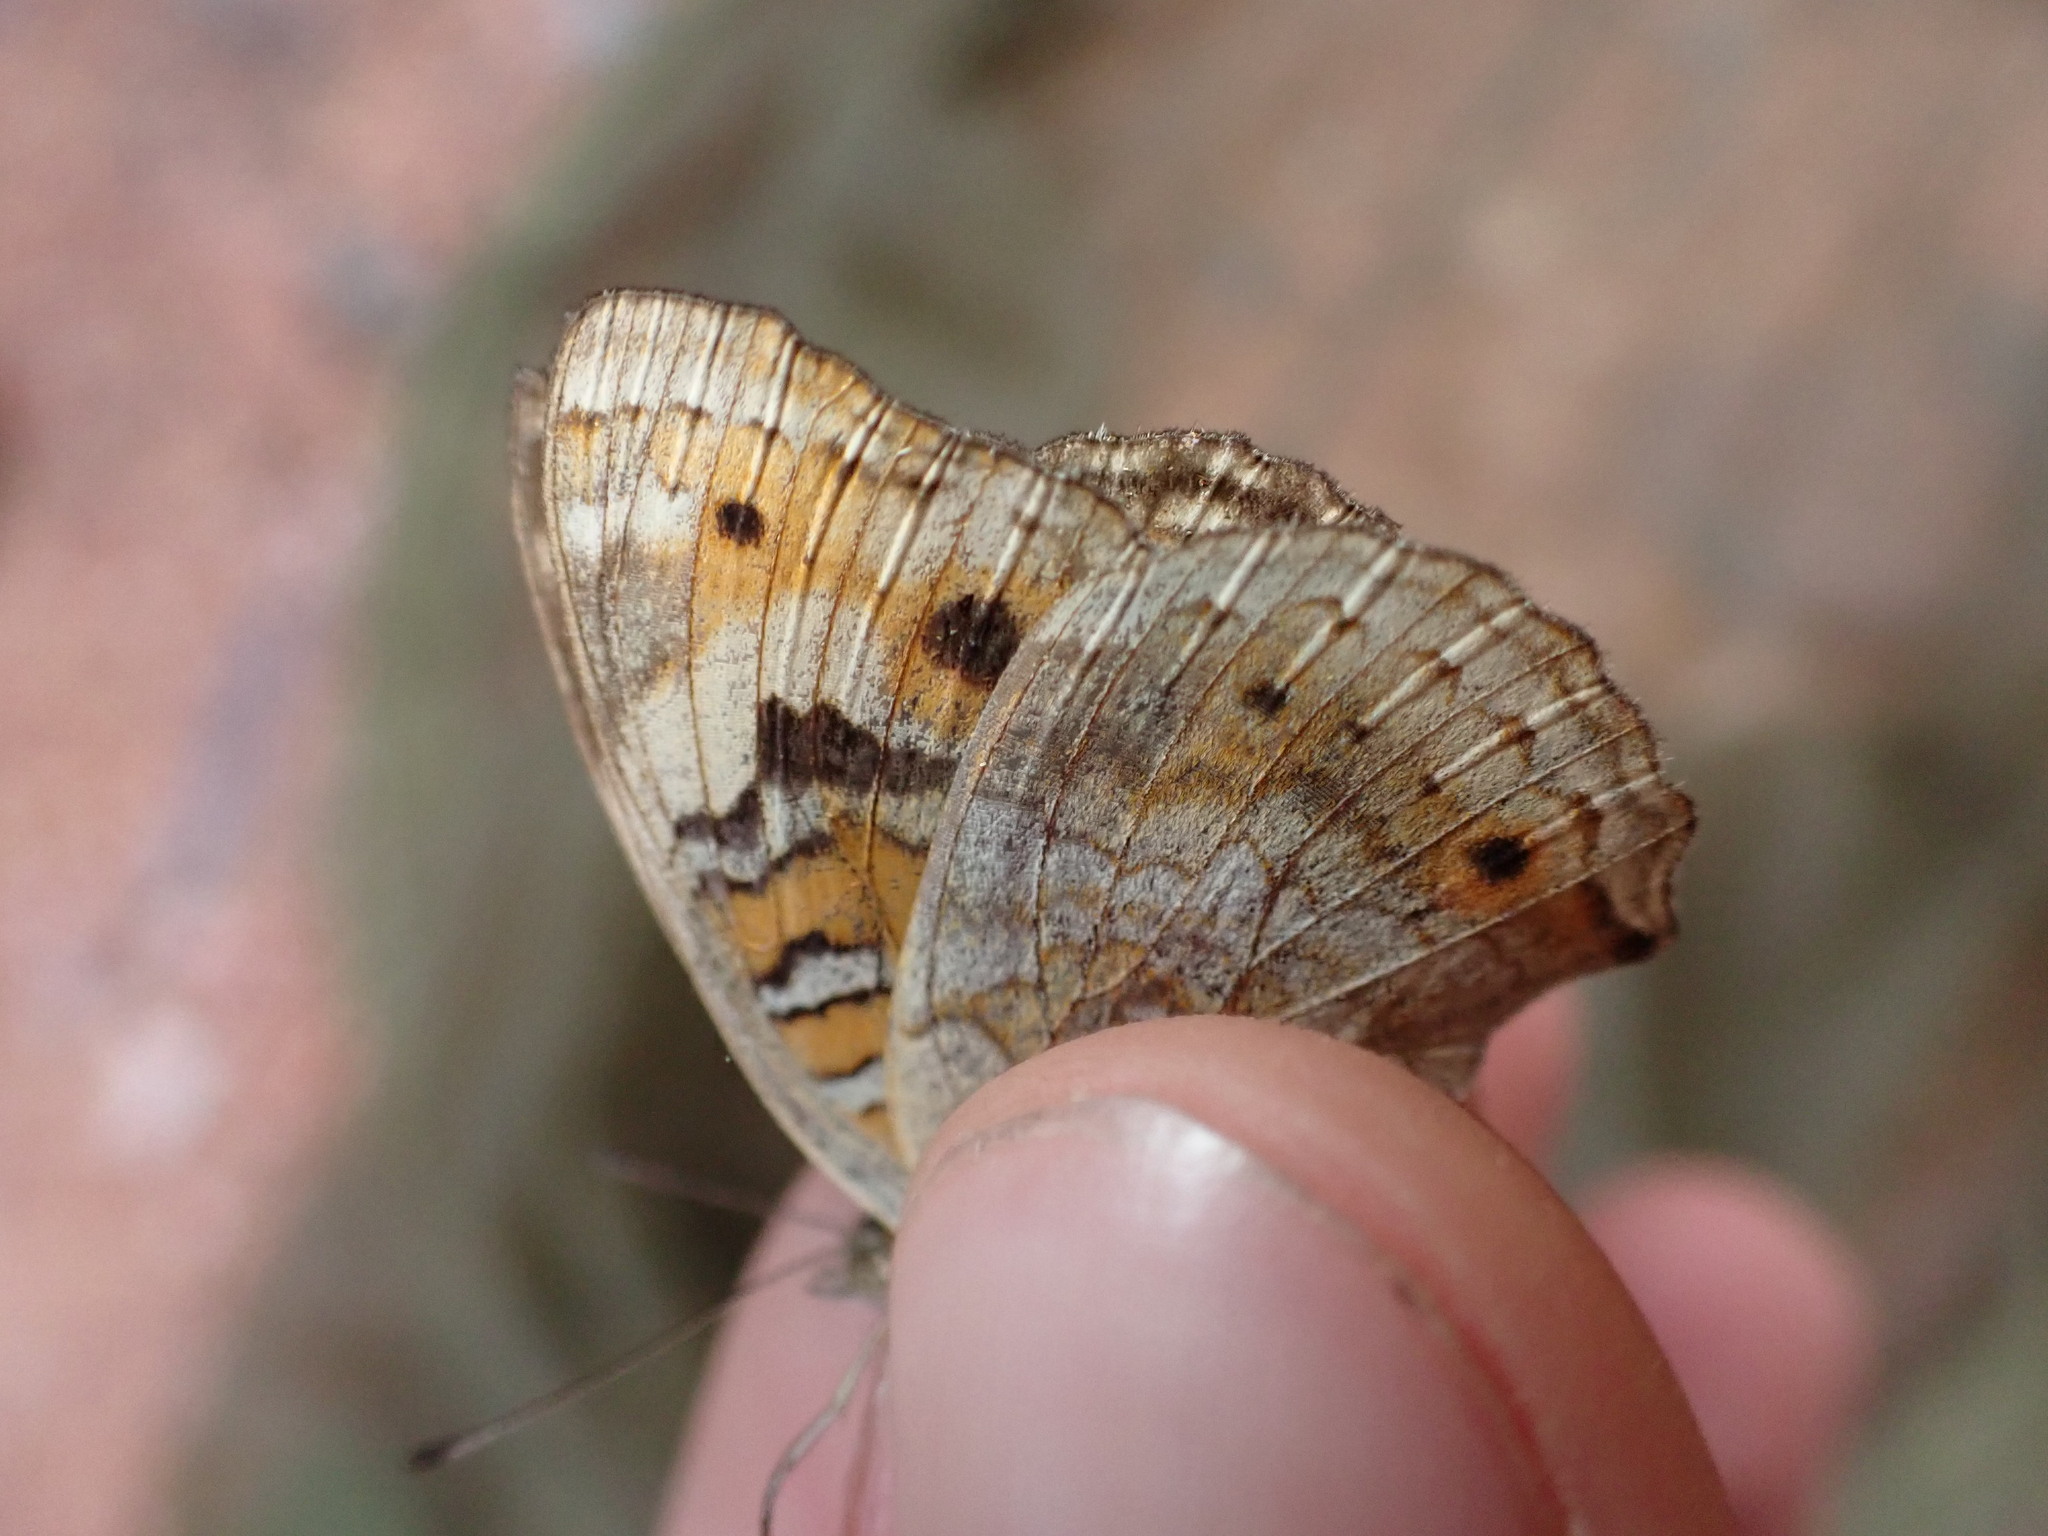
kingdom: Animalia
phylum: Arthropoda
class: Insecta
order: Lepidoptera
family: Nymphalidae
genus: Junonia
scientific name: Junonia orithya
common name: Blue pansy
